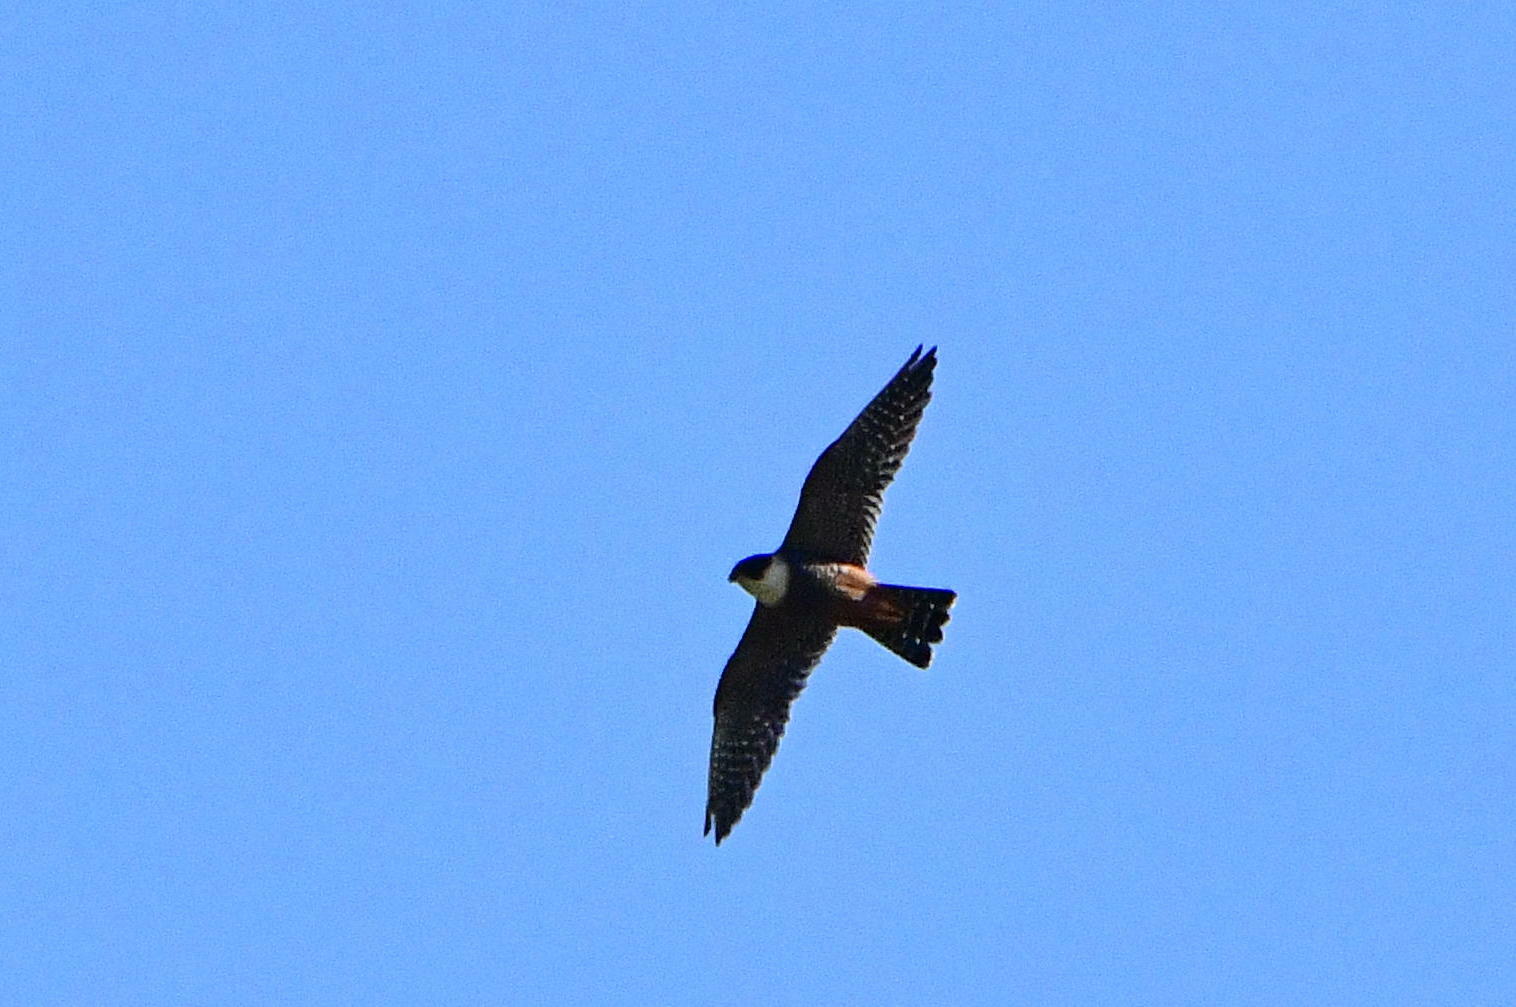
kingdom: Animalia
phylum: Chordata
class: Aves
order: Falconiformes
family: Falconidae
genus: Falco
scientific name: Falco rufigularis
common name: Bat falcon
